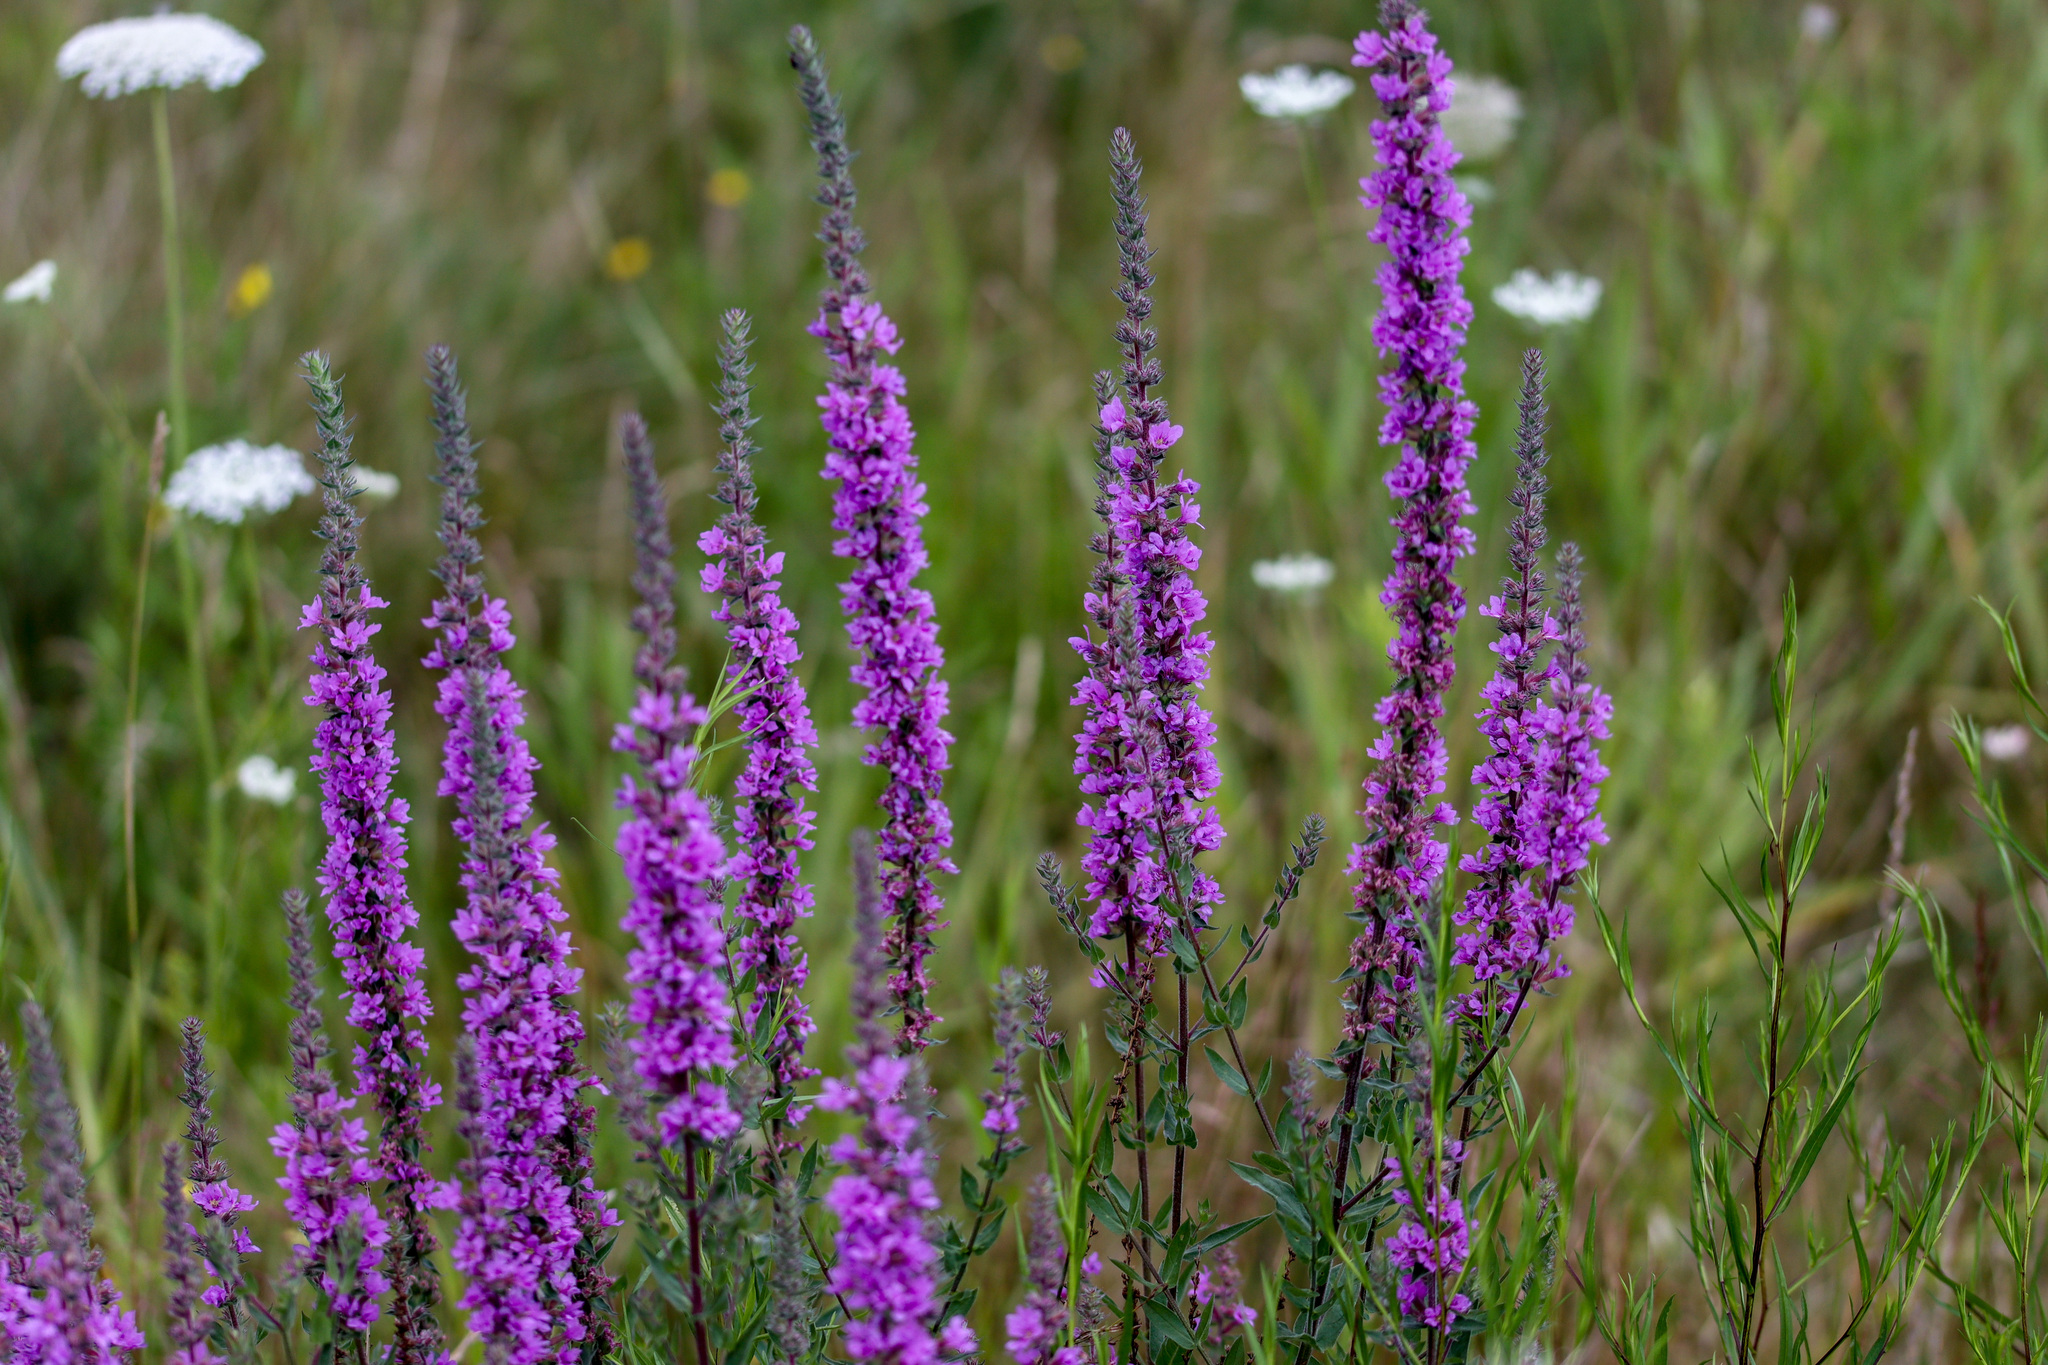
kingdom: Plantae
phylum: Tracheophyta
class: Magnoliopsida
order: Myrtales
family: Lythraceae
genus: Lythrum
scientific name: Lythrum salicaria
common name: Purple loosestrife
